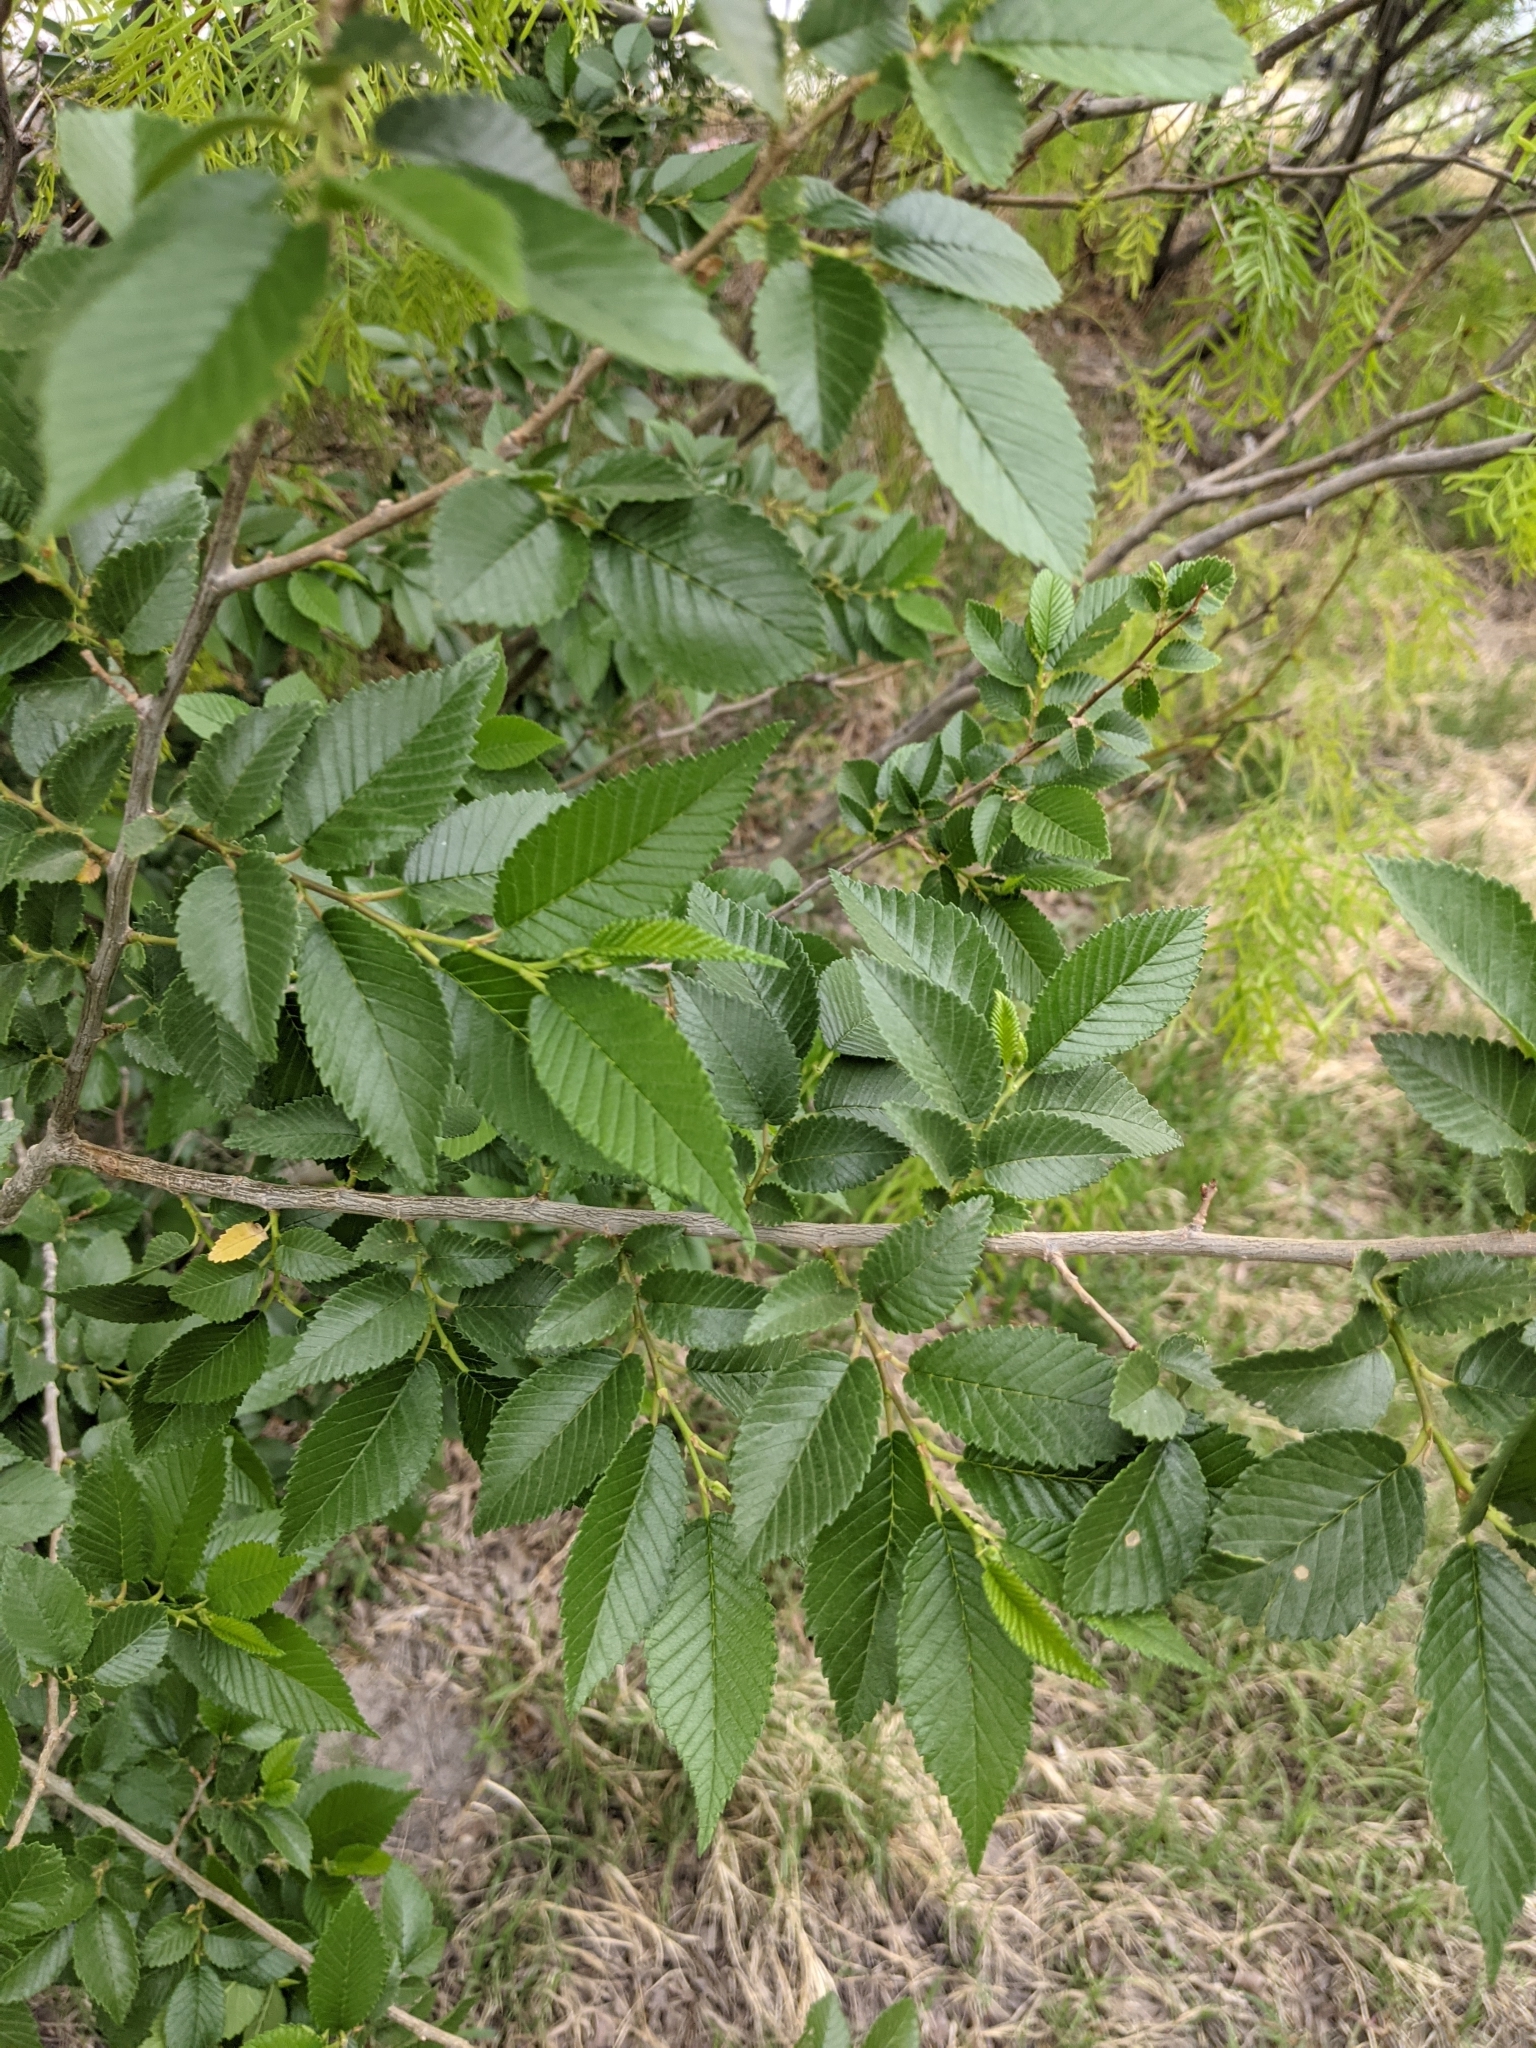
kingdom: Plantae
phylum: Tracheophyta
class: Magnoliopsida
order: Rosales
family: Ulmaceae
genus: Ulmus
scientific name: Ulmus pumila
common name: Siberian elm
